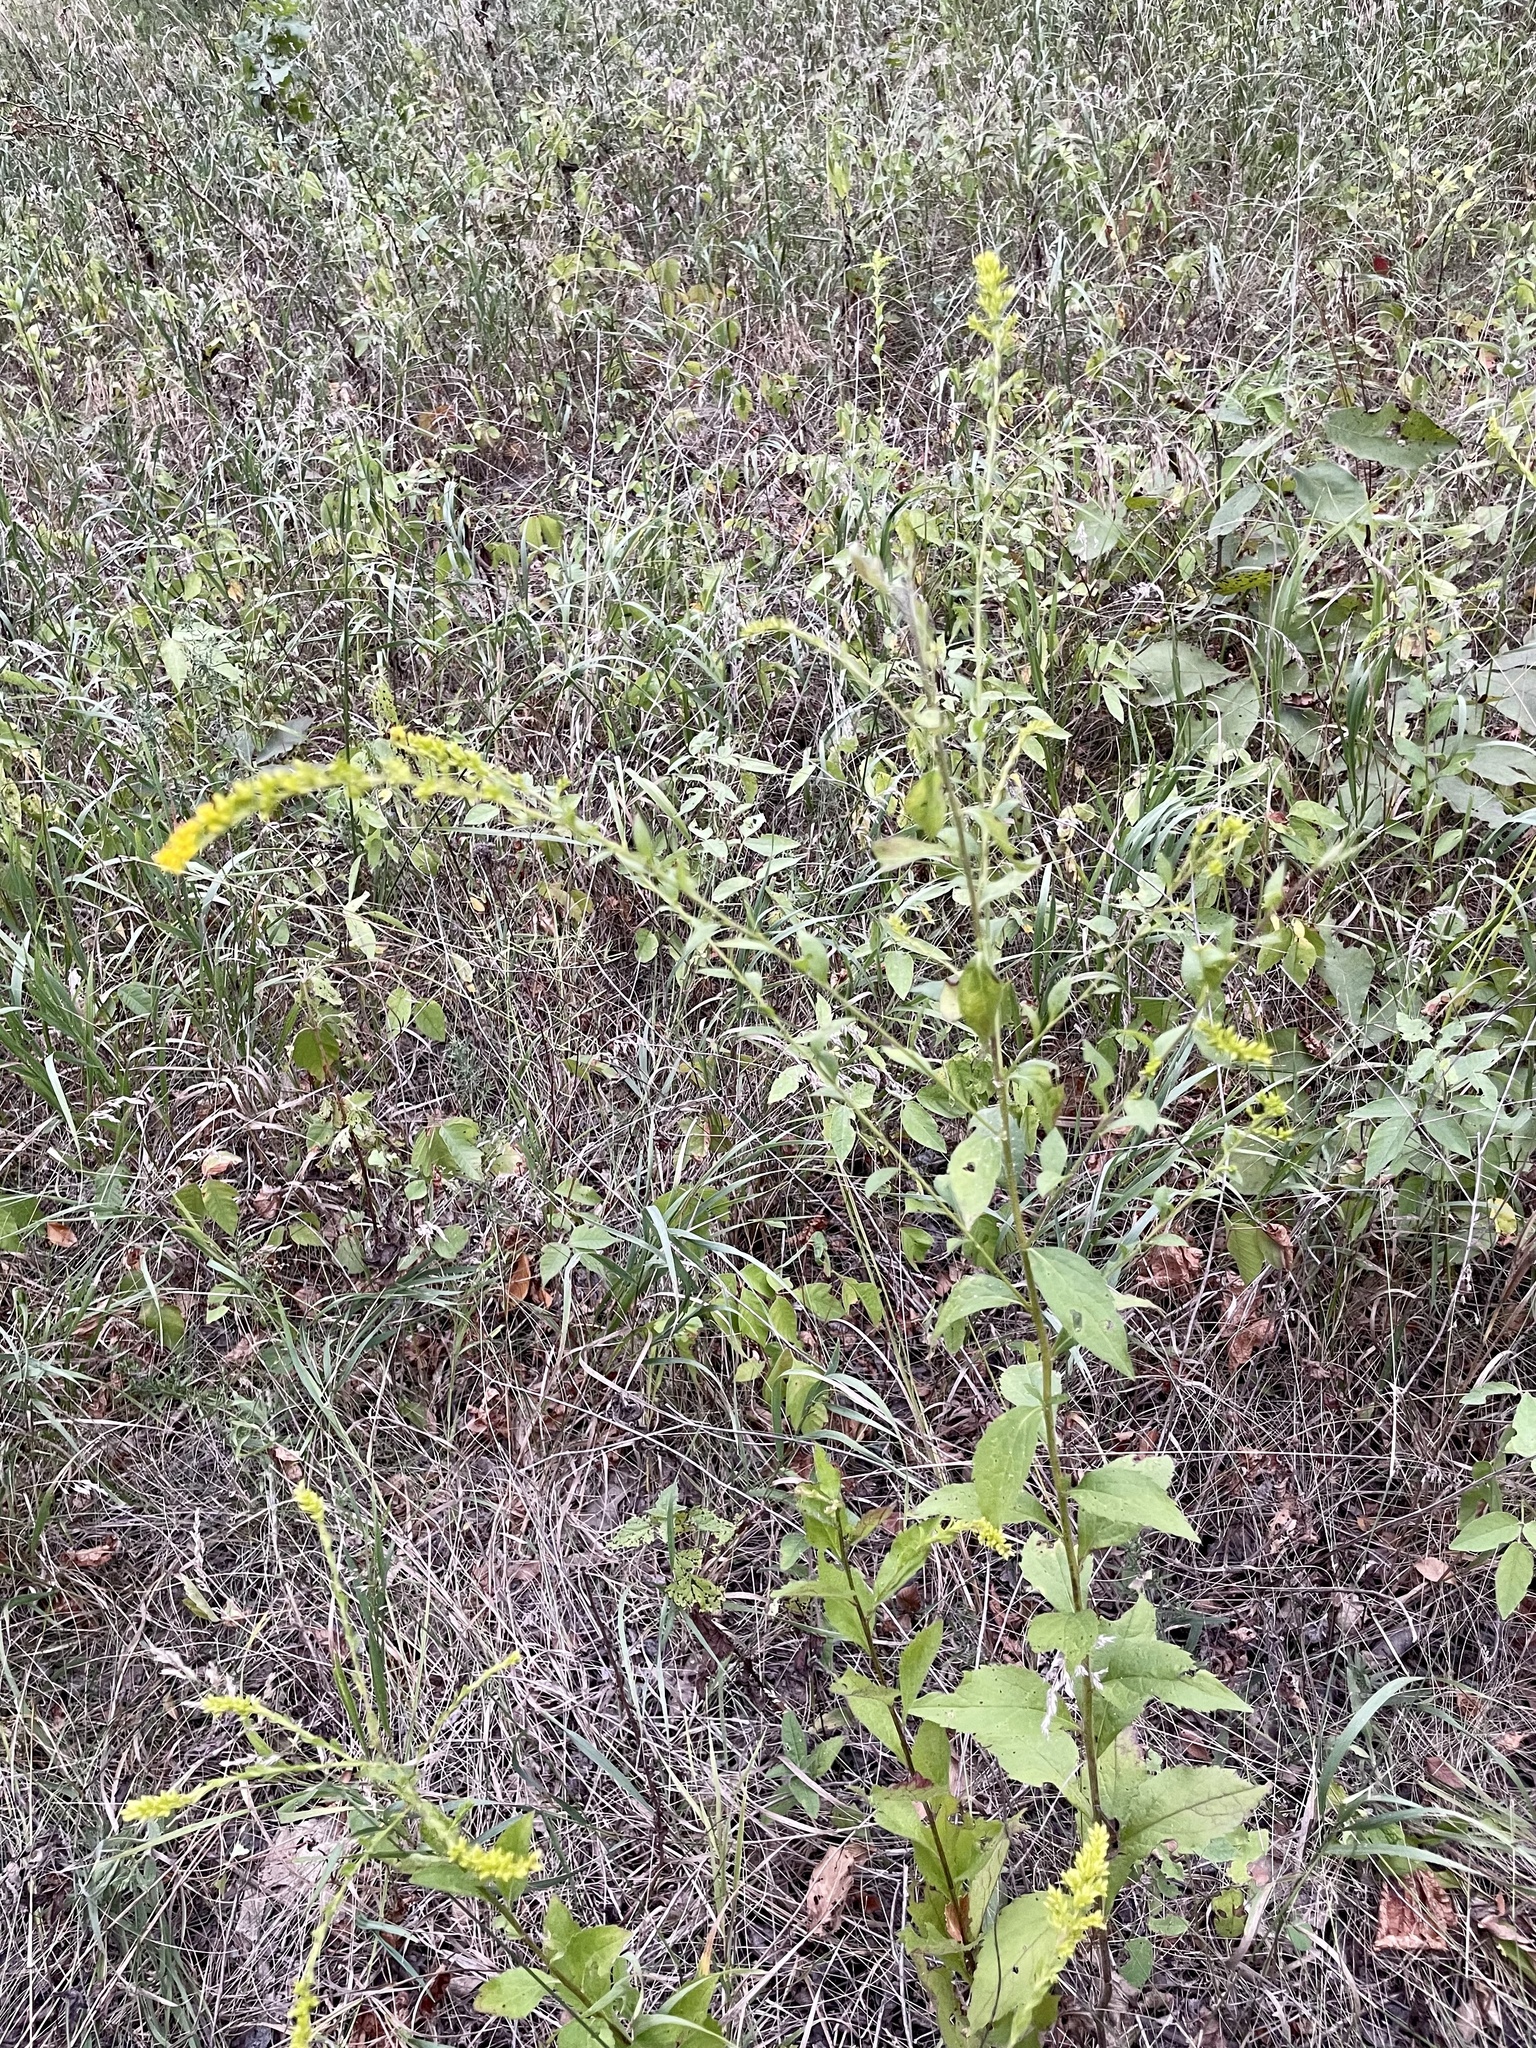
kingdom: Plantae
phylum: Tracheophyta
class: Magnoliopsida
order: Asterales
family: Asteraceae
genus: Solidago
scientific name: Solidago ulmifolia
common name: Elm-leaf goldenrod
